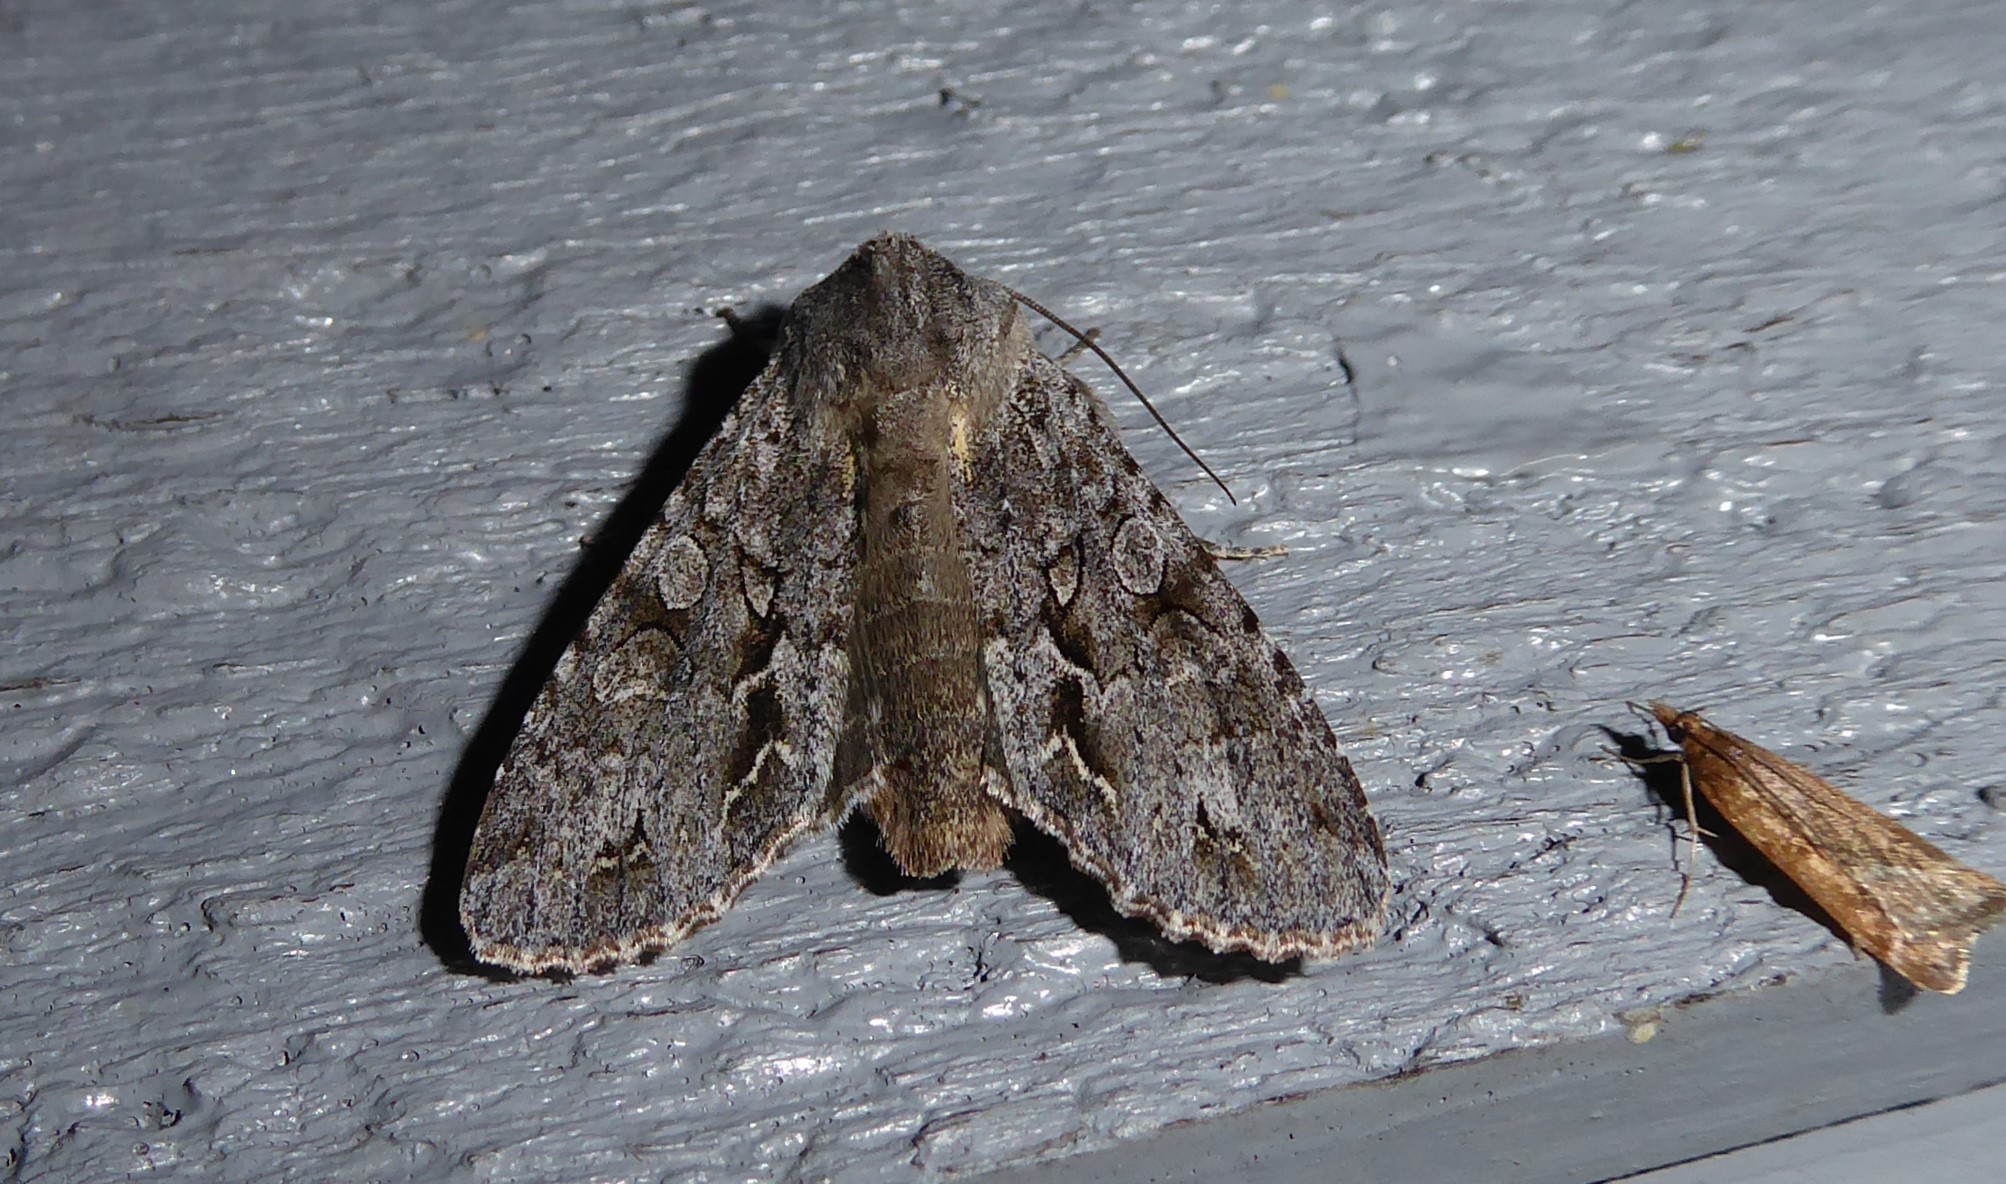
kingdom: Animalia
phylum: Arthropoda
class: Insecta
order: Lepidoptera
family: Noctuidae
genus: Ichneutica
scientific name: Ichneutica
